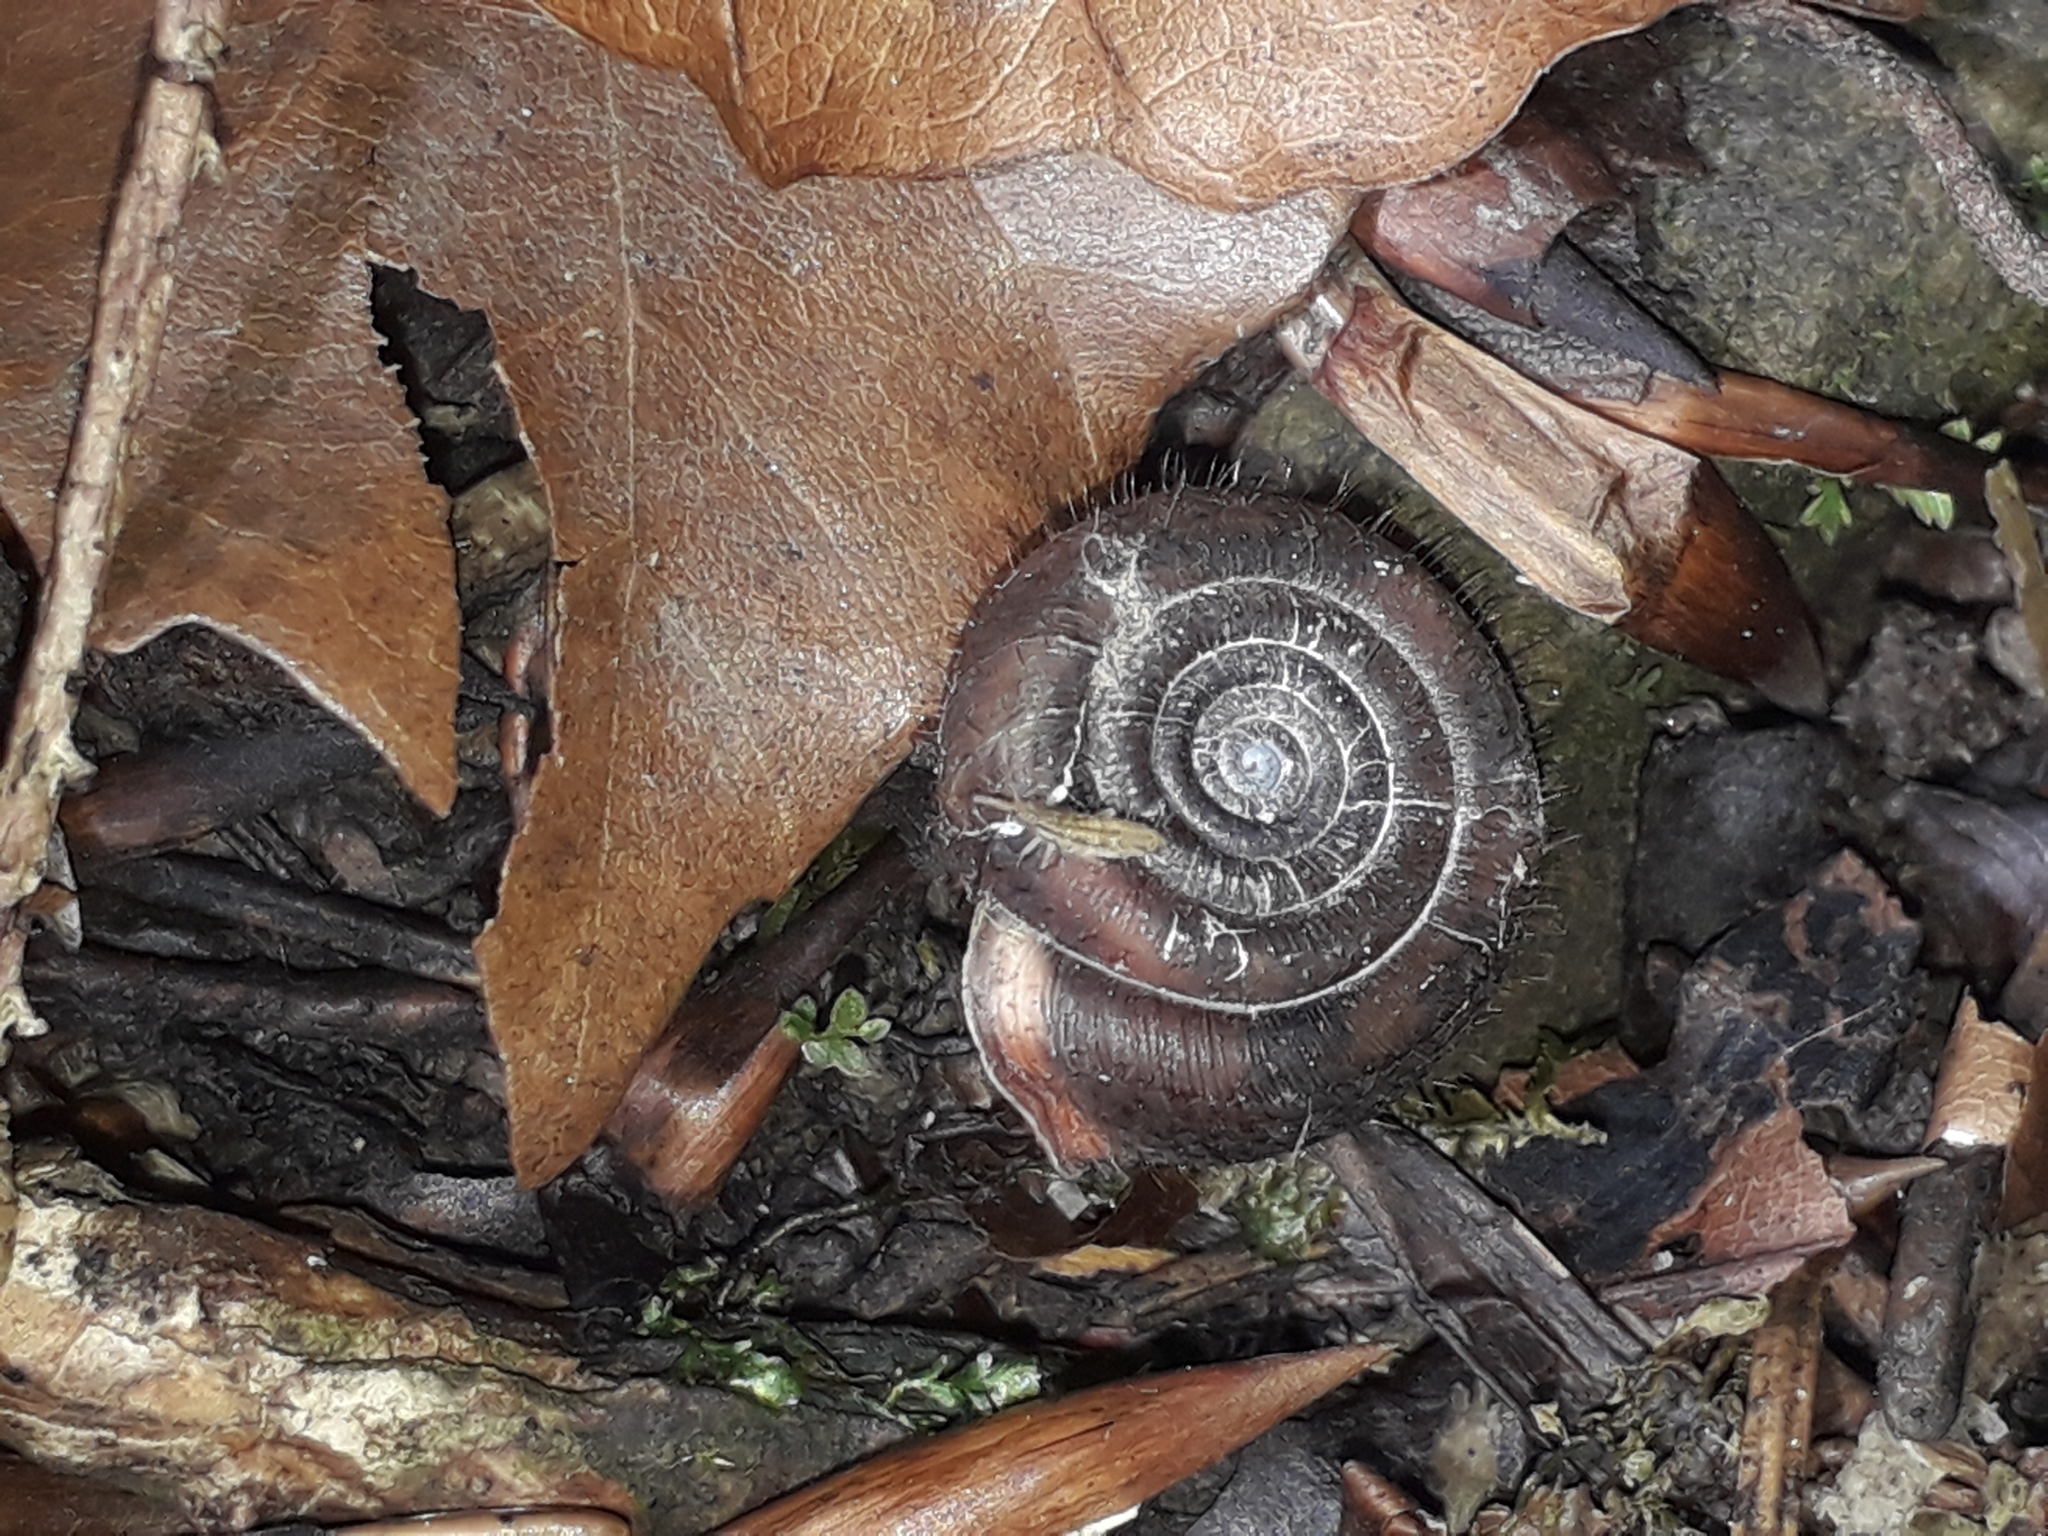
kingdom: Animalia
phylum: Mollusca
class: Gastropoda
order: Stylommatophora
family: Helicodontidae
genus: Helicodonta
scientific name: Helicodonta obvoluta
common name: Cheese snail
